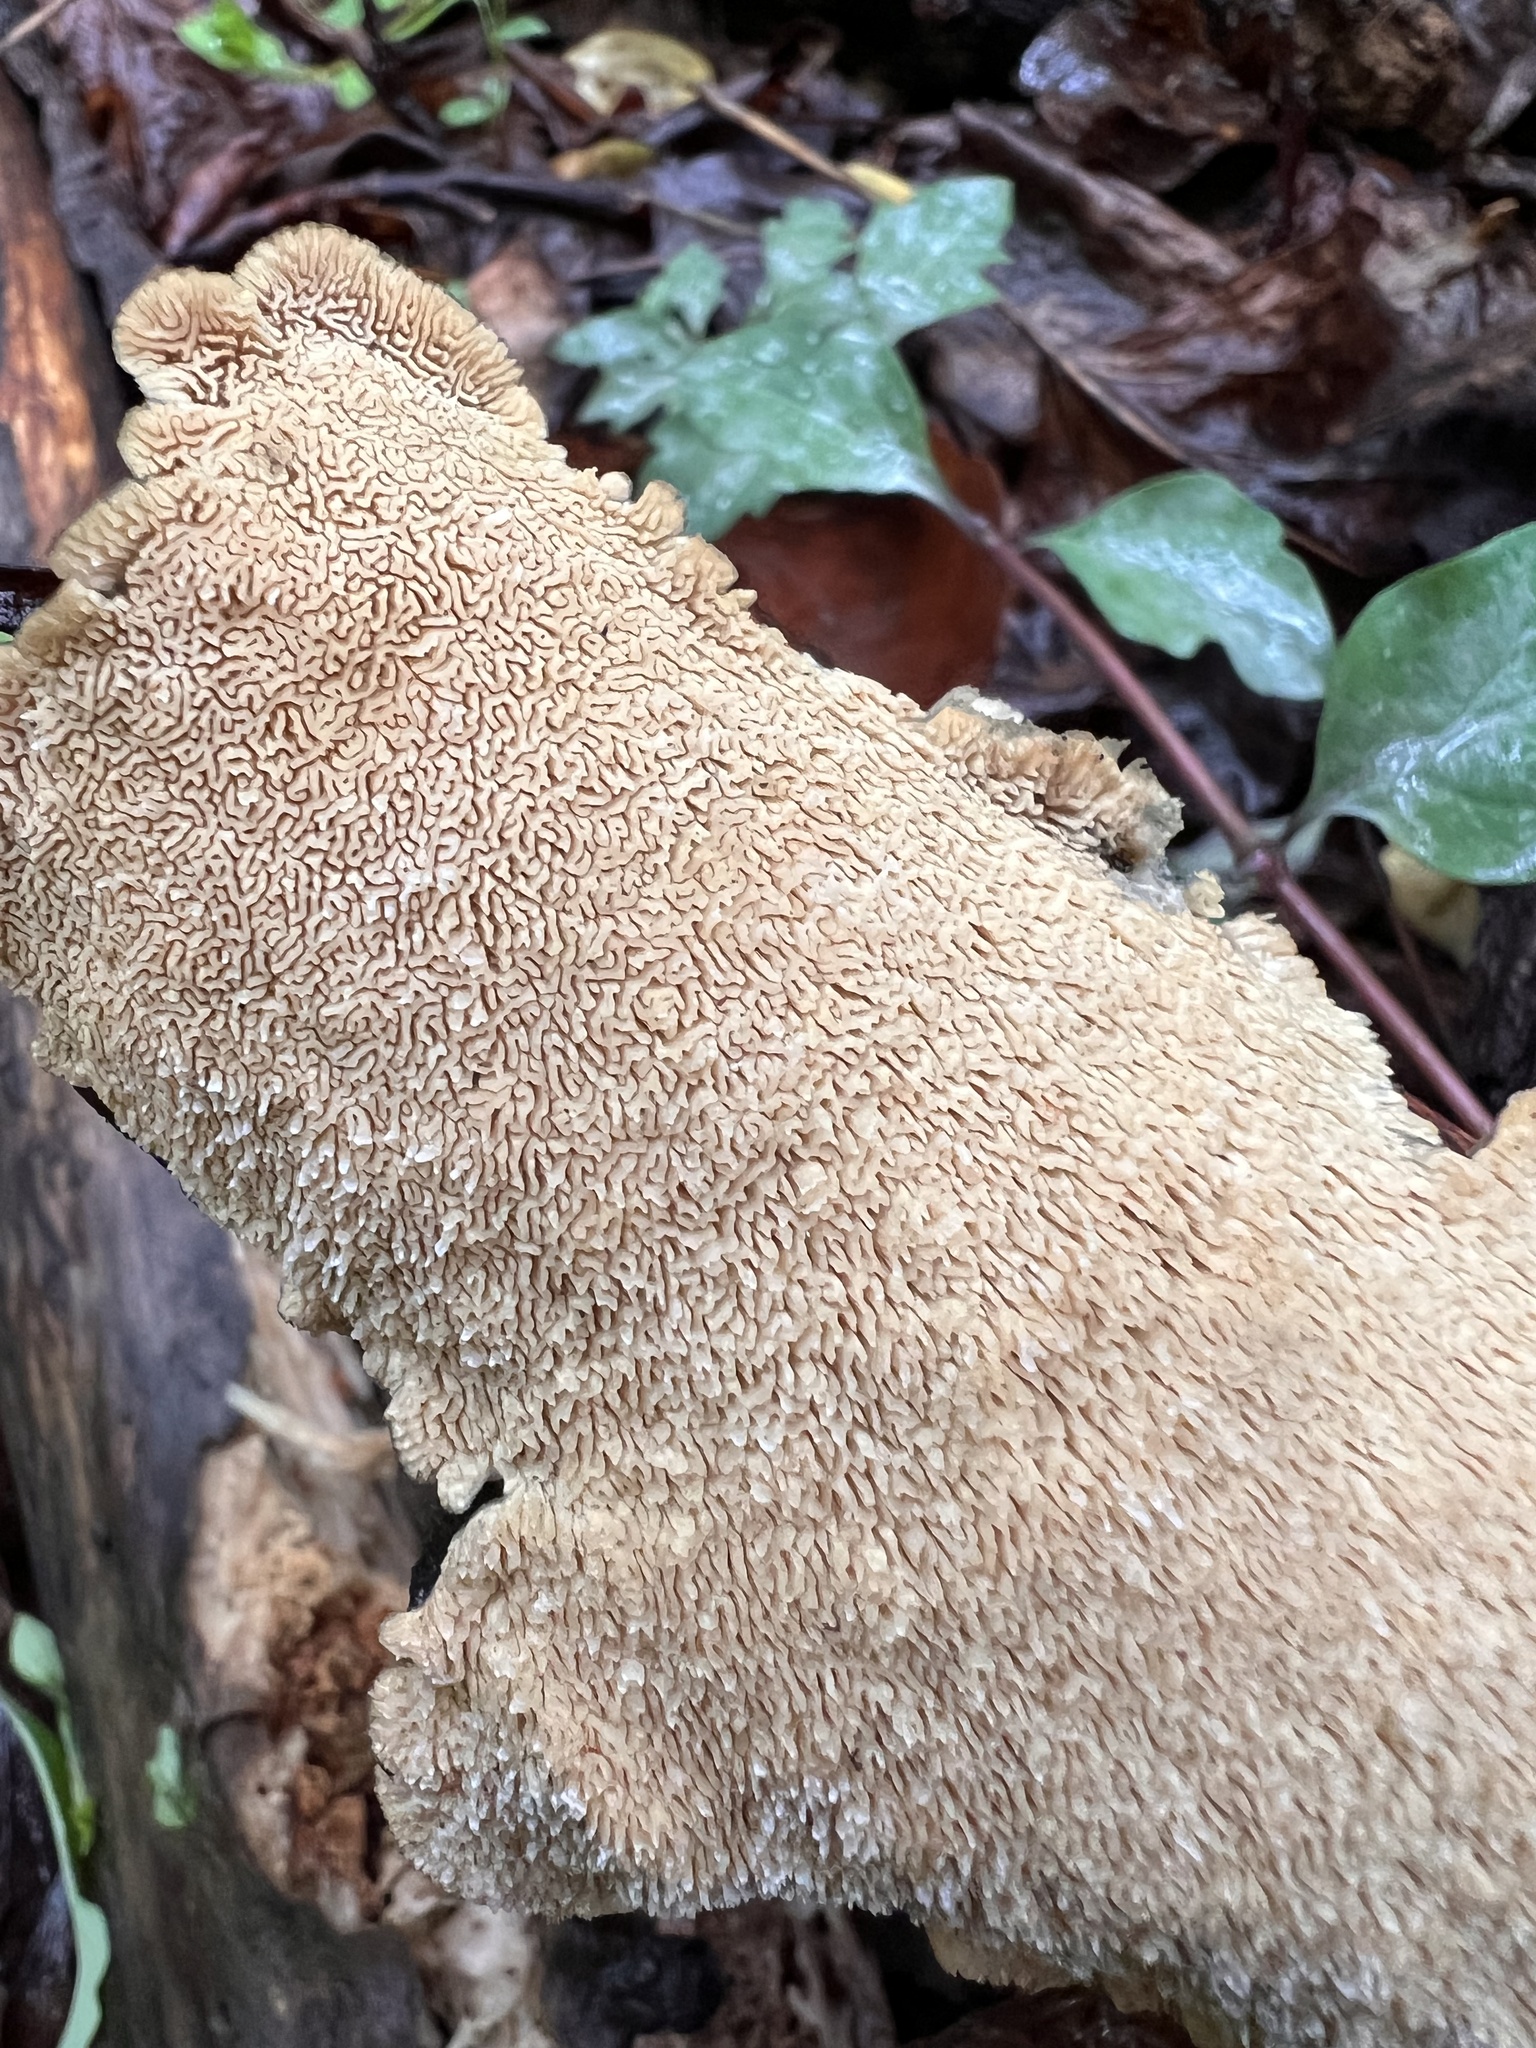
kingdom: Fungi
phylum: Basidiomycota
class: Agaricomycetes
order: Polyporales
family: Irpicaceae
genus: Irpex
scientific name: Irpex lacteus
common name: Milk-white toothed polypore
